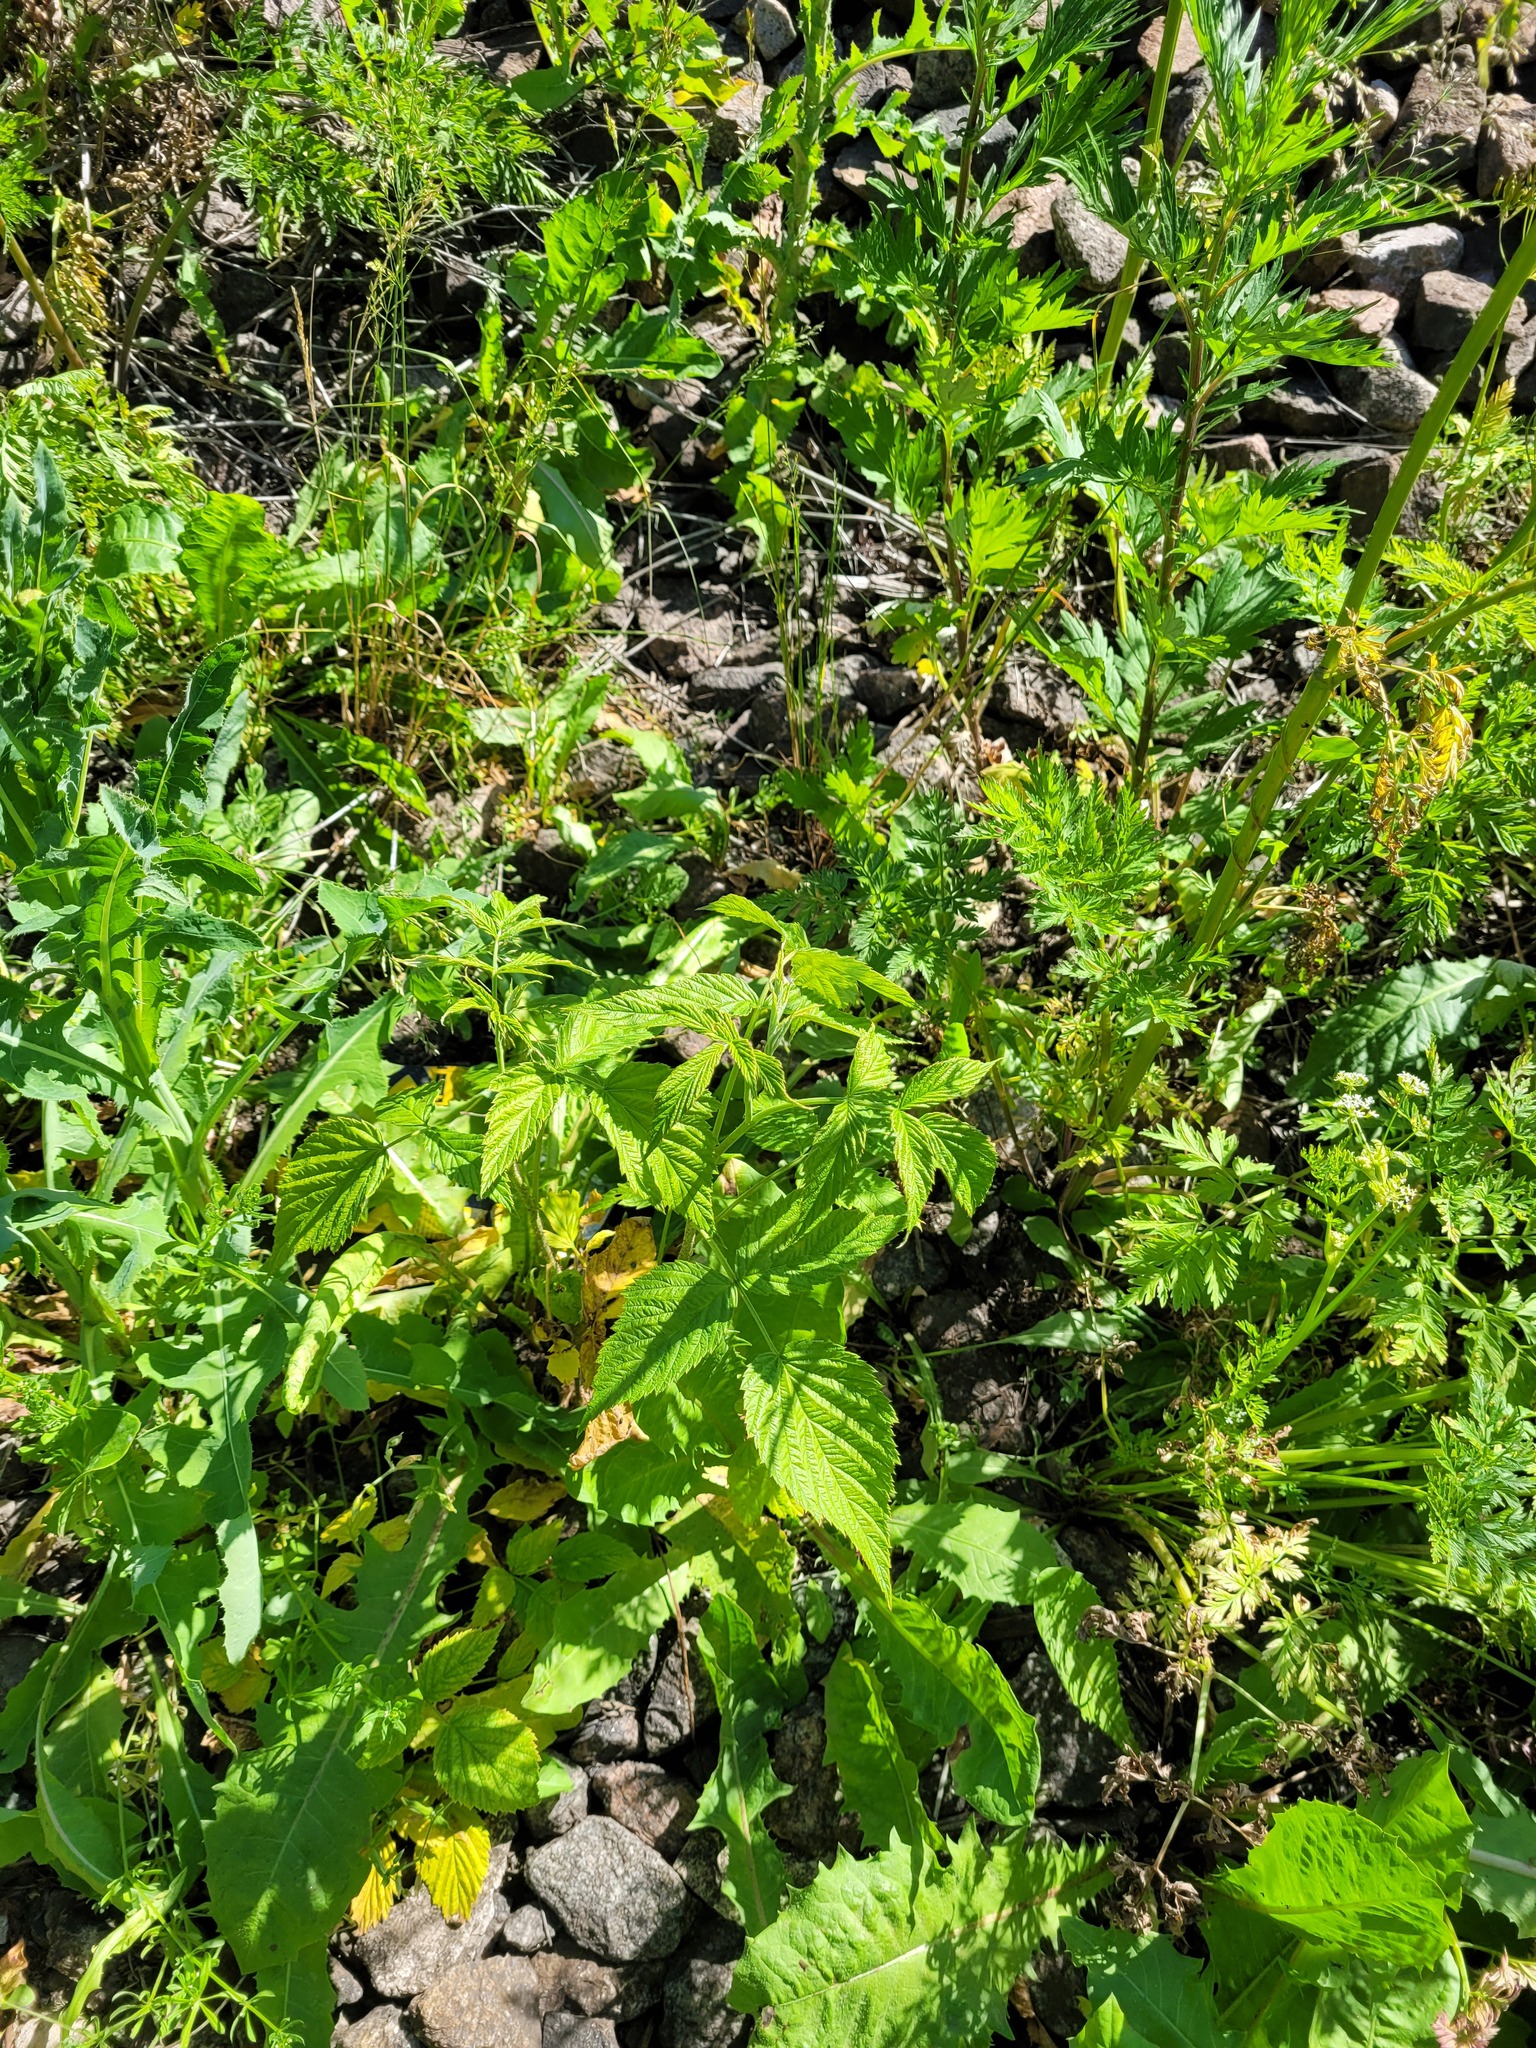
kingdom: Plantae
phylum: Tracheophyta
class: Magnoliopsida
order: Rosales
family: Rosaceae
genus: Rubus
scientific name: Rubus idaeus
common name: Raspberry
